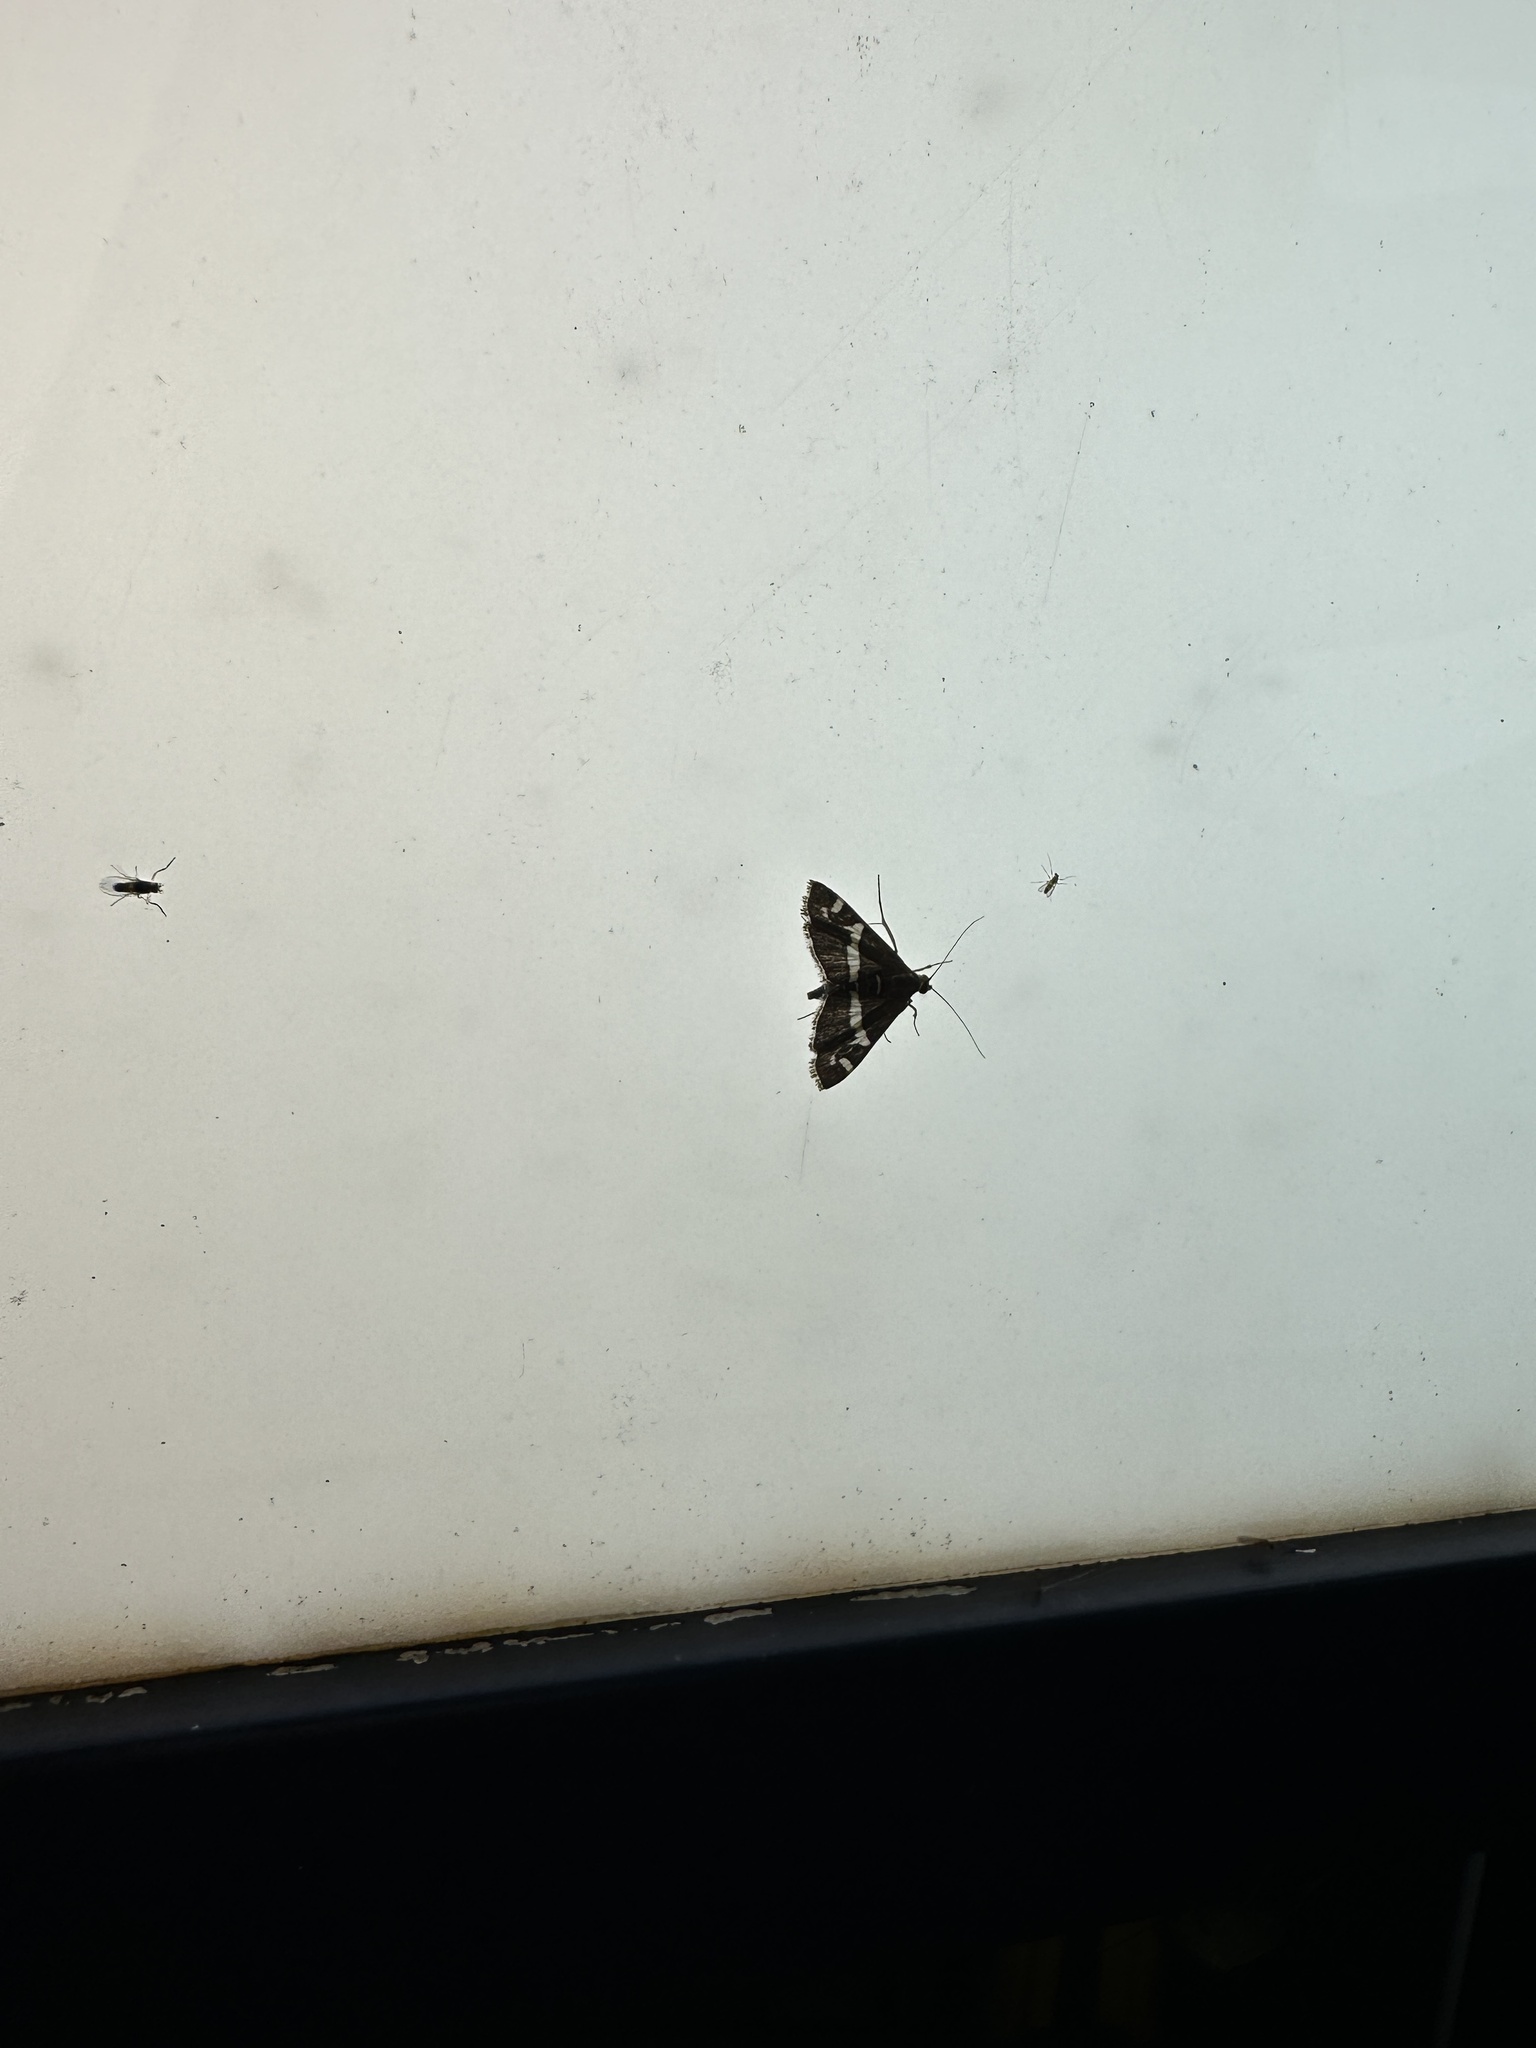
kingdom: Animalia
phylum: Arthropoda
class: Insecta
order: Lepidoptera
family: Crambidae
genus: Spoladea
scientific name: Spoladea recurvalis
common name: Beet webworm moth
